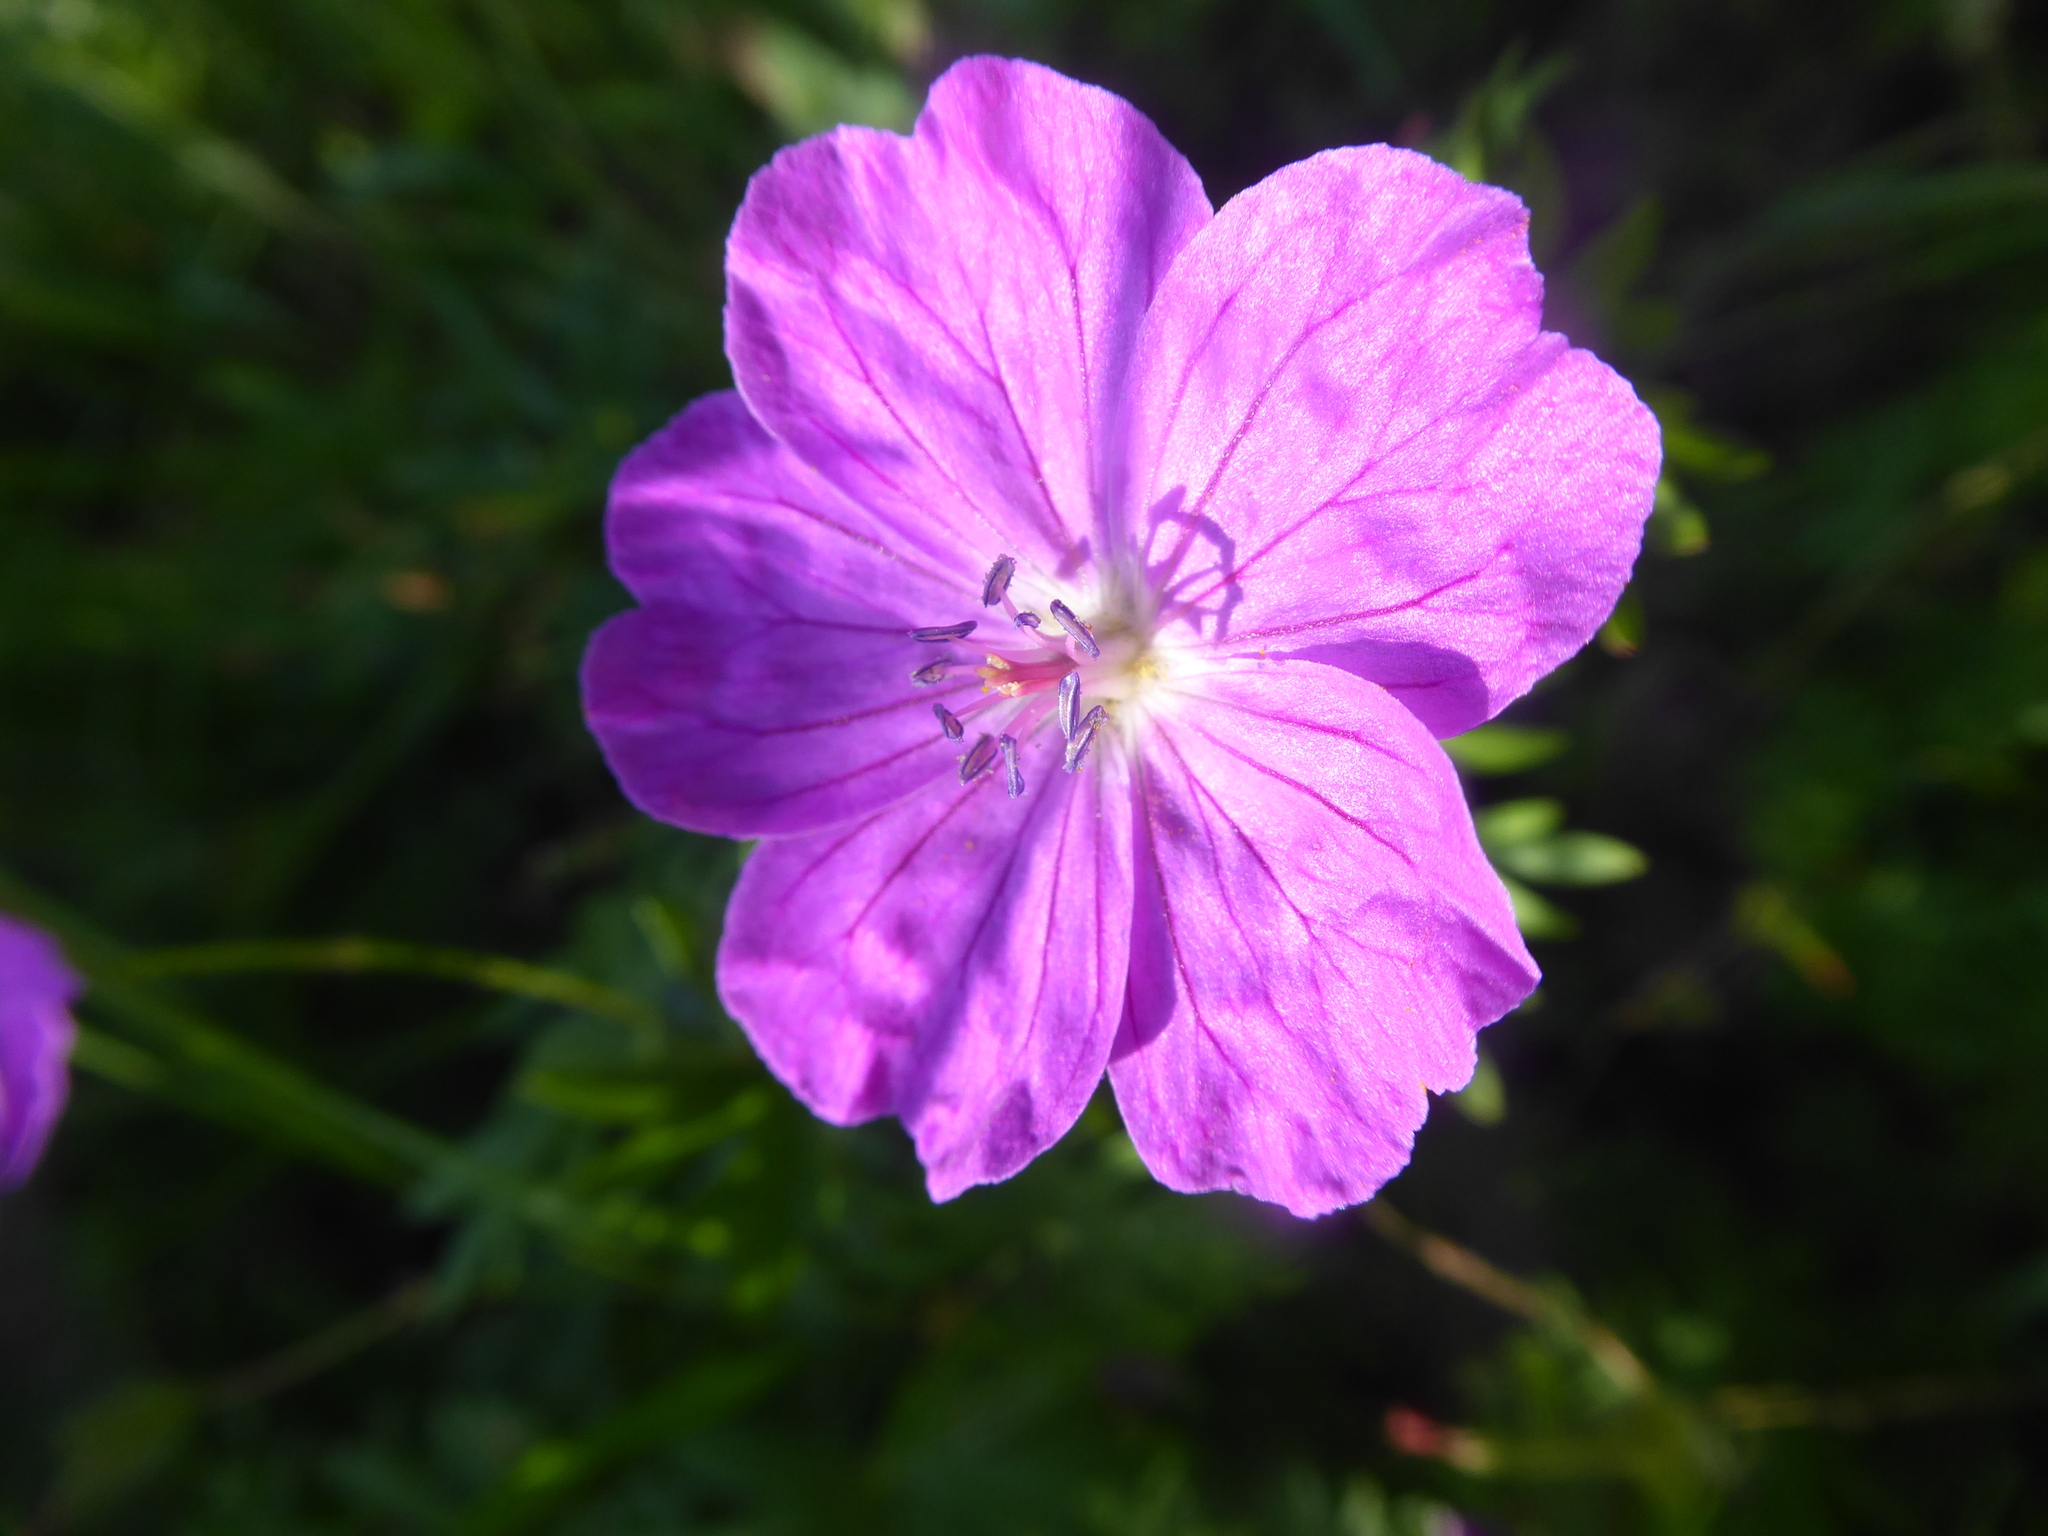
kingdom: Plantae
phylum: Tracheophyta
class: Magnoliopsida
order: Geraniales
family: Geraniaceae
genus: Geranium
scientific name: Geranium sanguineum
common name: Bloody crane's-bill
